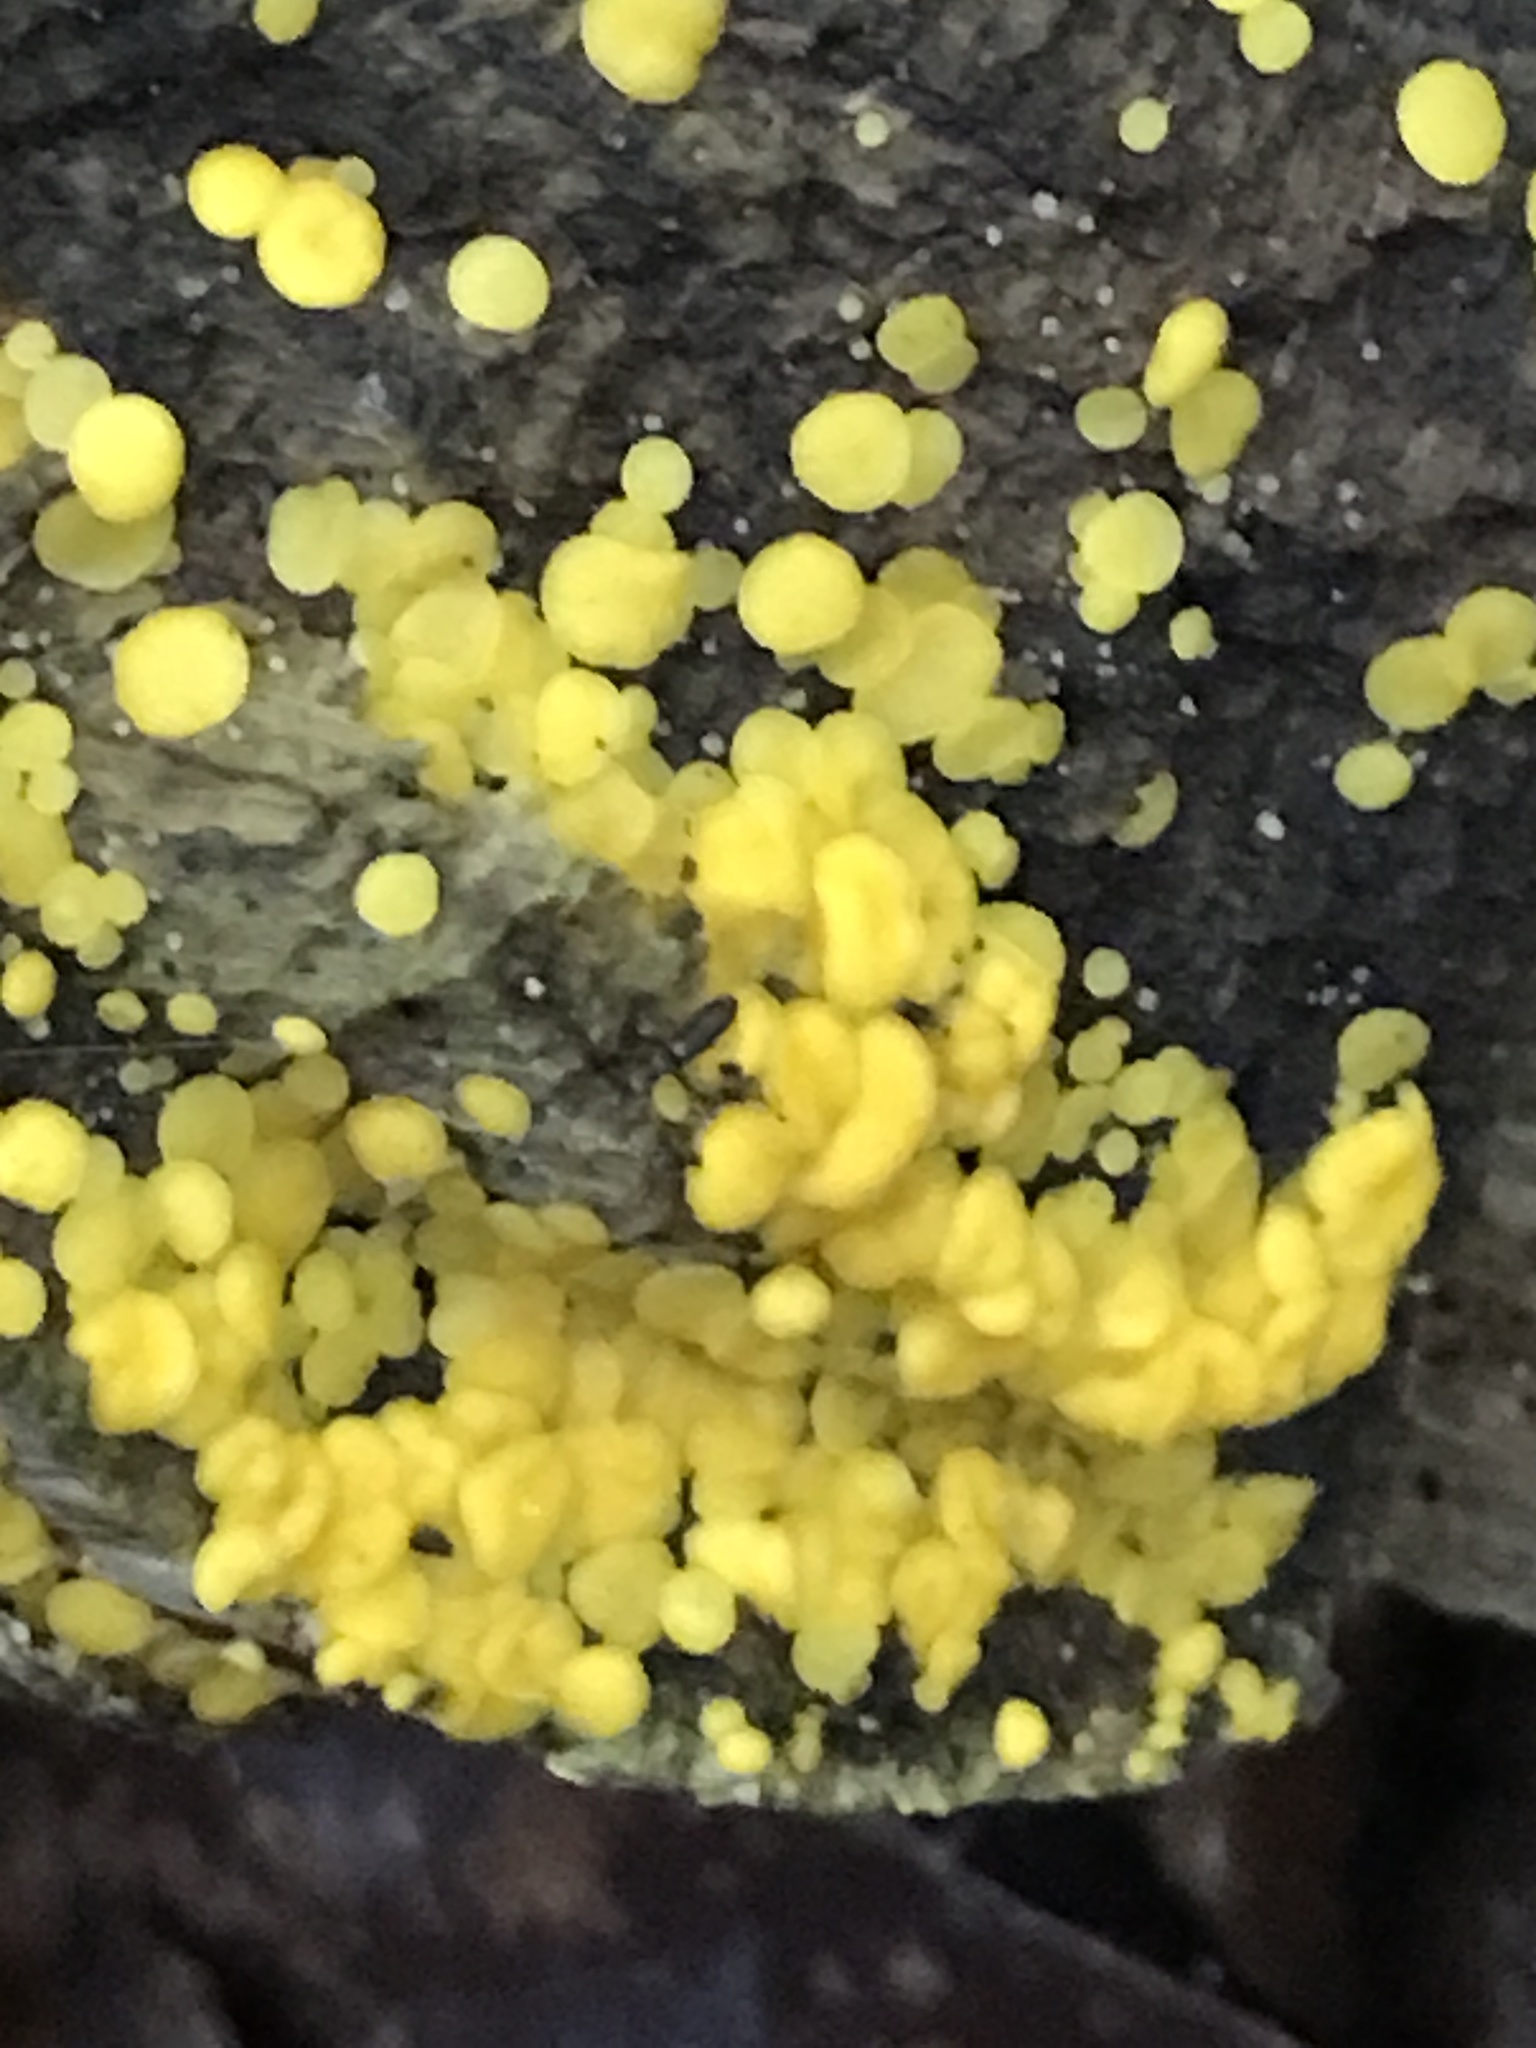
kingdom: Fungi
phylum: Ascomycota
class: Leotiomycetes
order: Helotiales
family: Pezizellaceae
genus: Calycina
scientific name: Calycina citrina
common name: Yellow fairy cups
